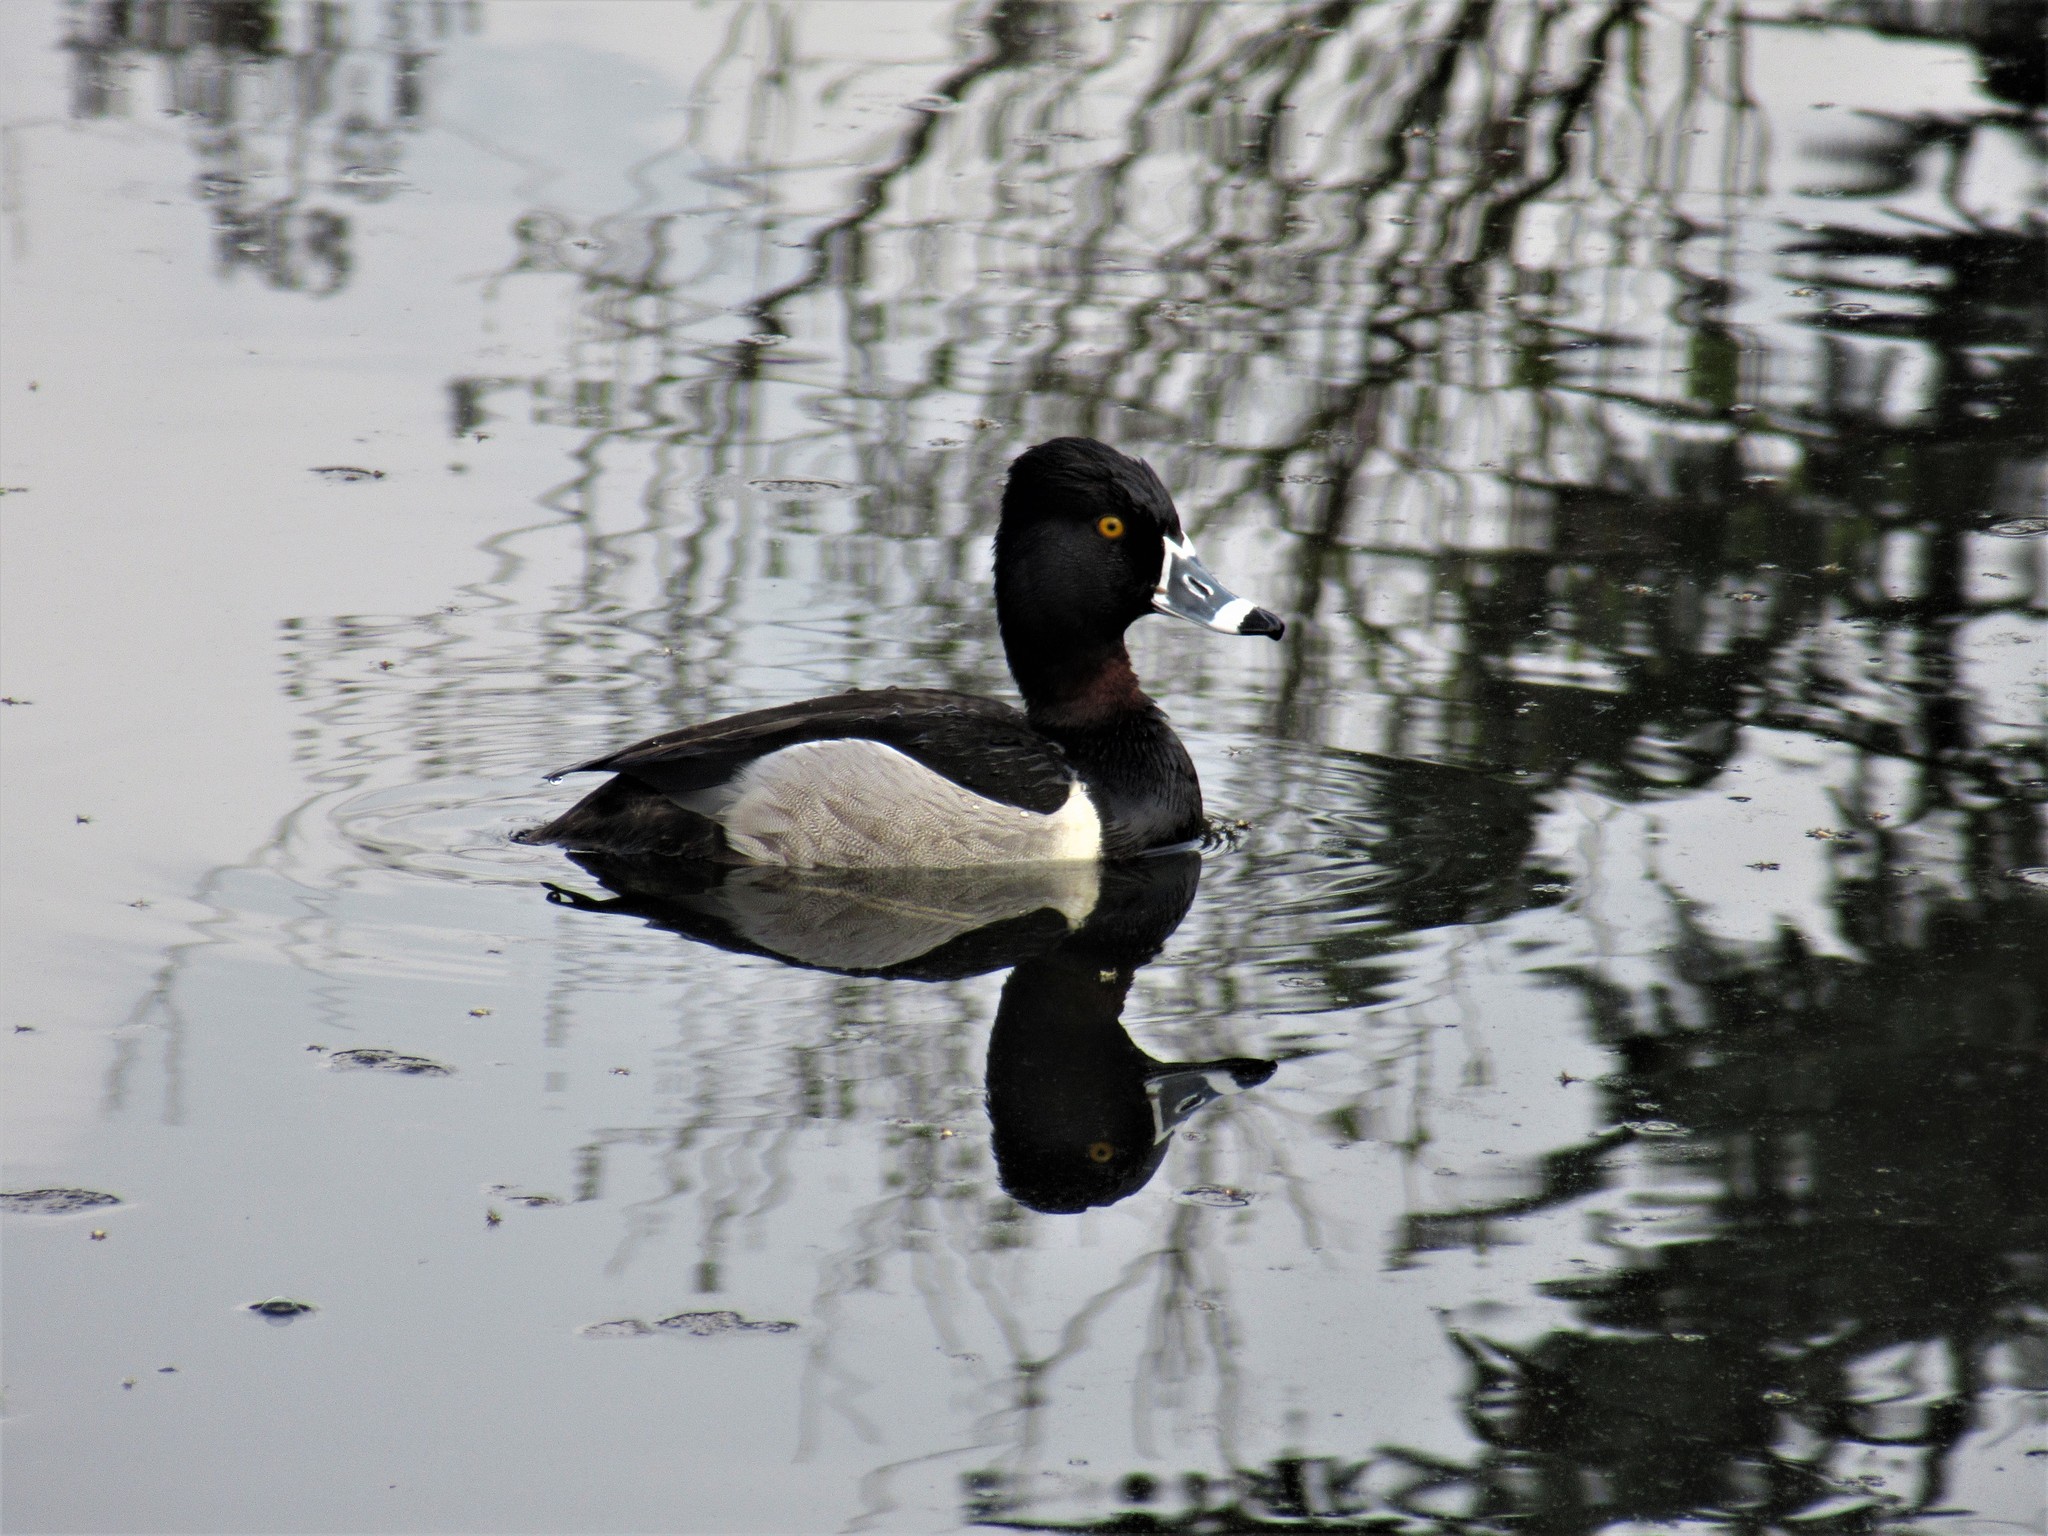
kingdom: Animalia
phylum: Chordata
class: Aves
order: Anseriformes
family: Anatidae
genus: Aythya
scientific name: Aythya collaris
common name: Ring-necked duck
